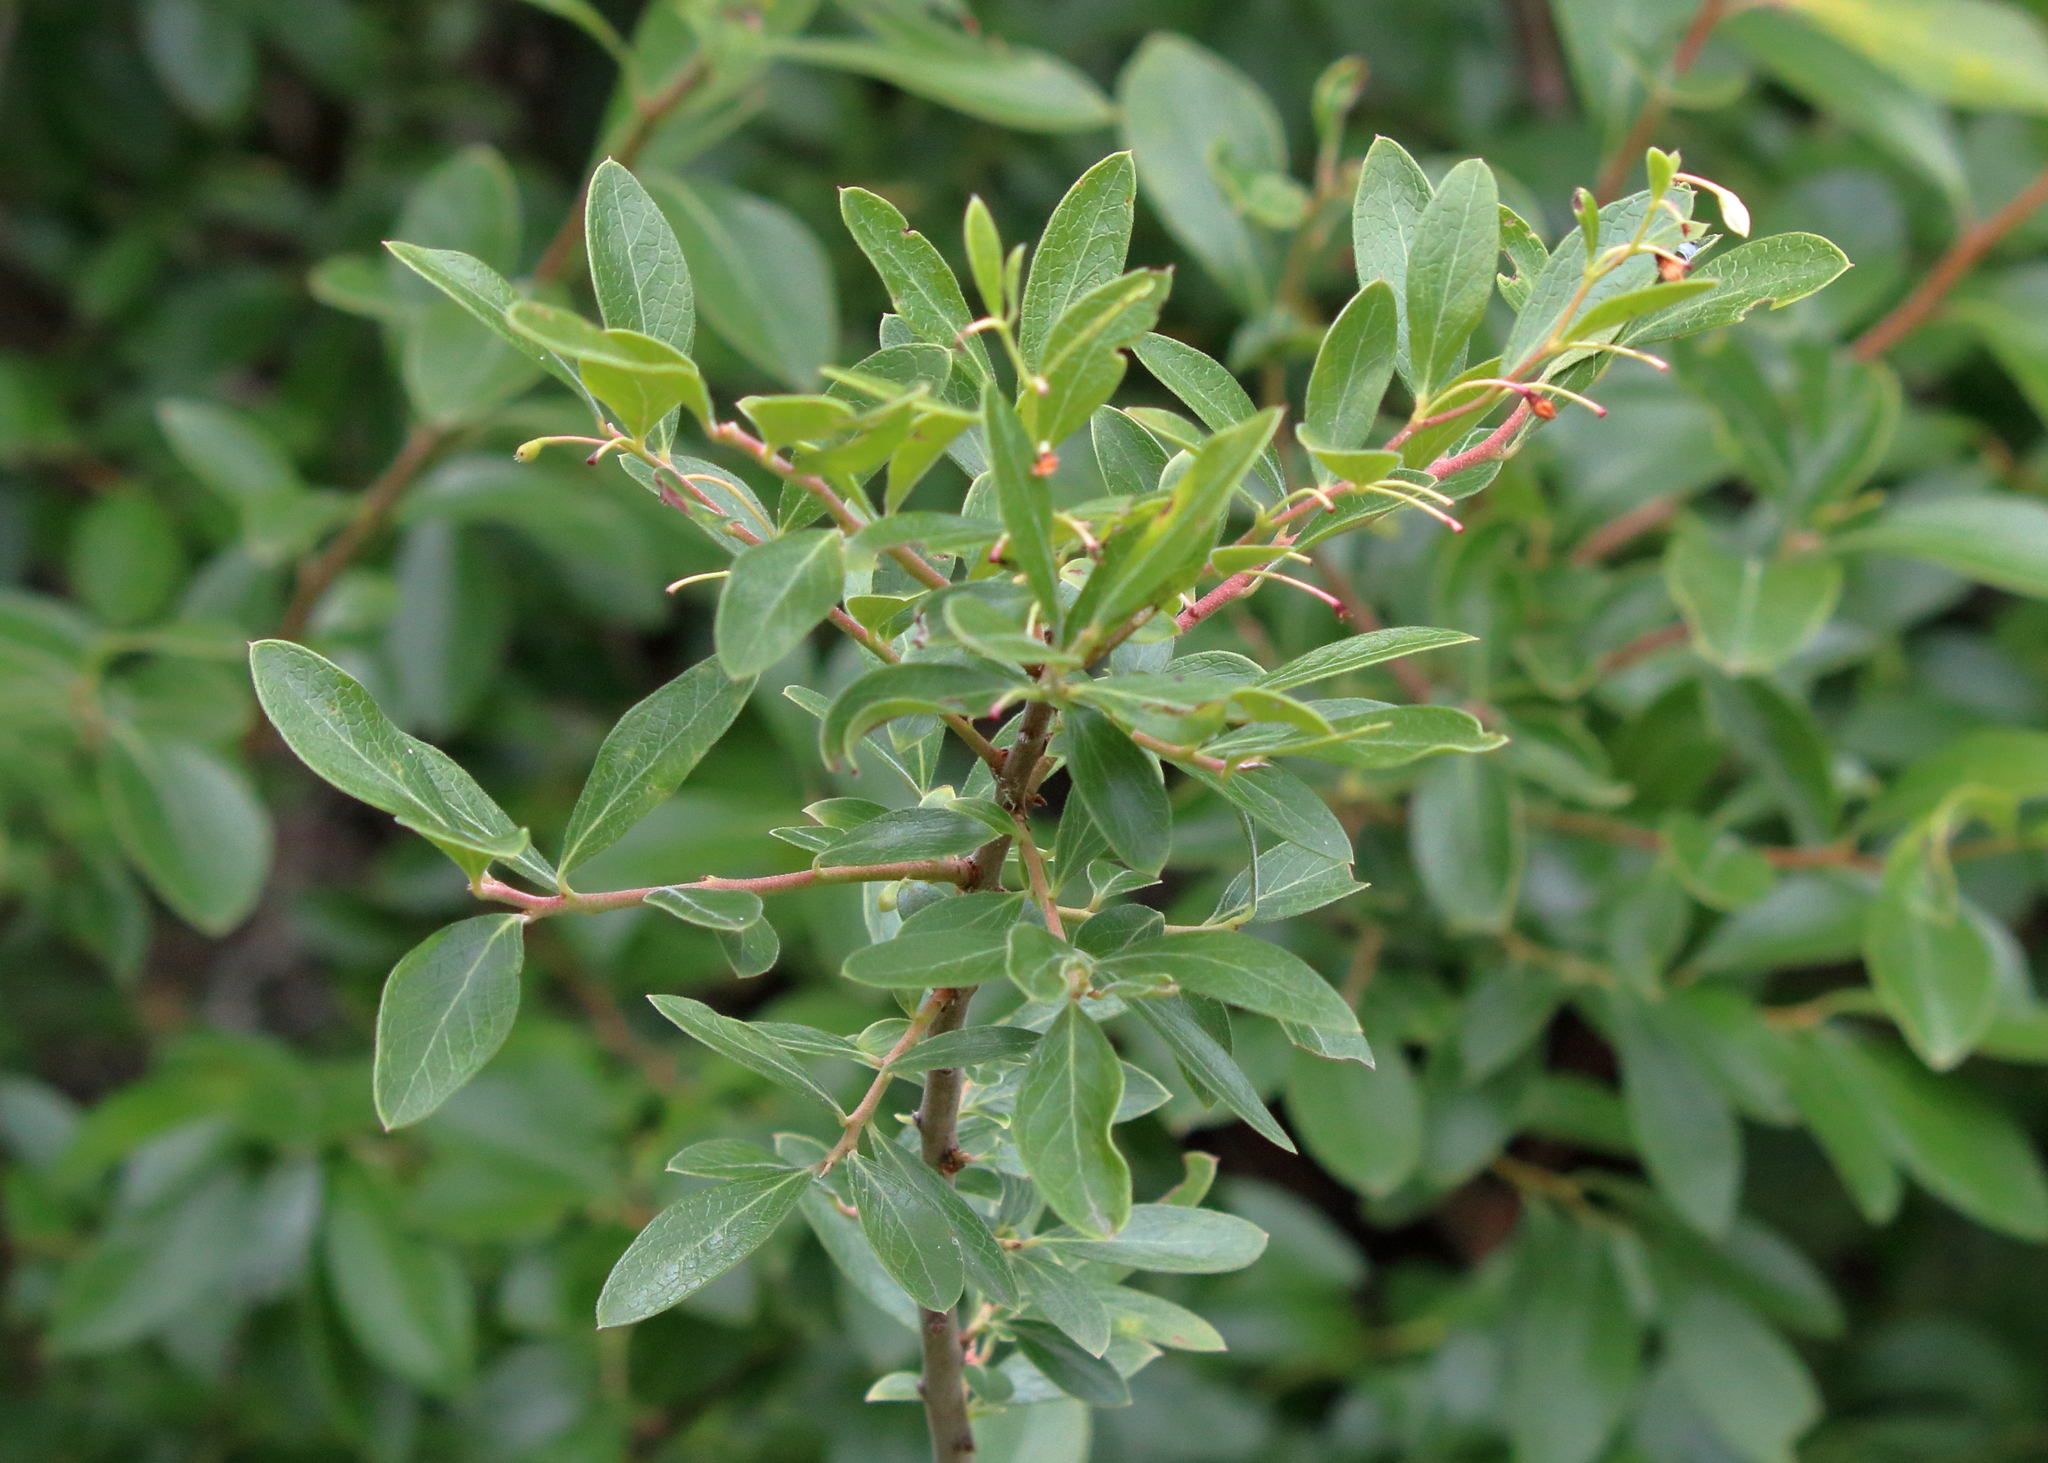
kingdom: Plantae
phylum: Tracheophyta
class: Magnoliopsida
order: Ericales
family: Ericaceae
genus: Vaccinium
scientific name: Vaccinium arboreum
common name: Farkleberry
